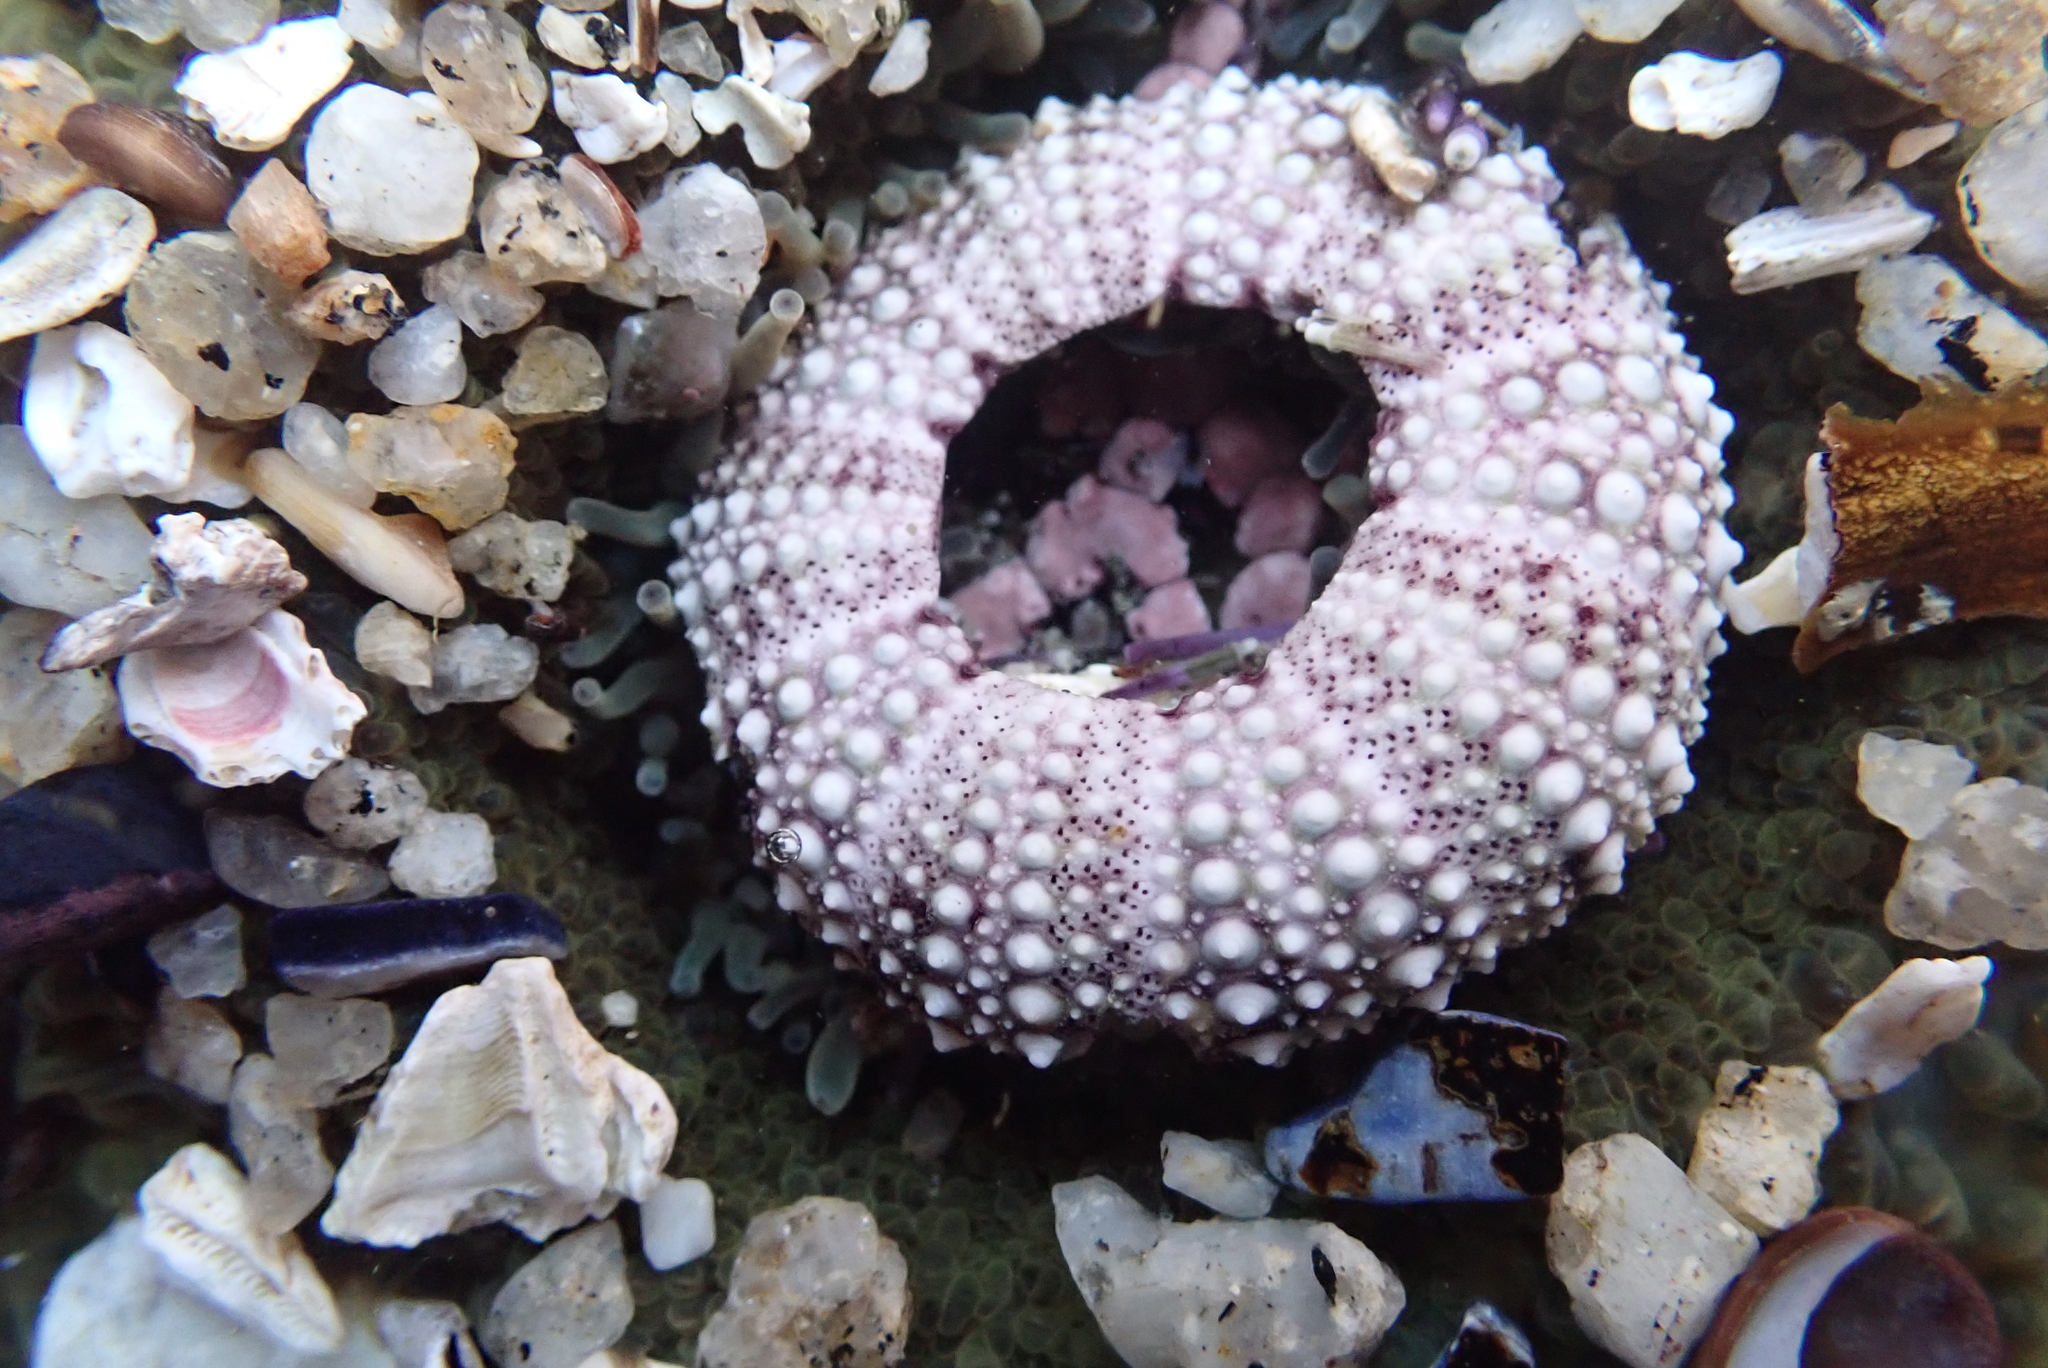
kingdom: Animalia
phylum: Echinodermata
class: Echinoidea
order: Camarodonta
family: Strongylocentrotidae
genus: Strongylocentrotus
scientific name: Strongylocentrotus purpuratus
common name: Purple sea urchin
